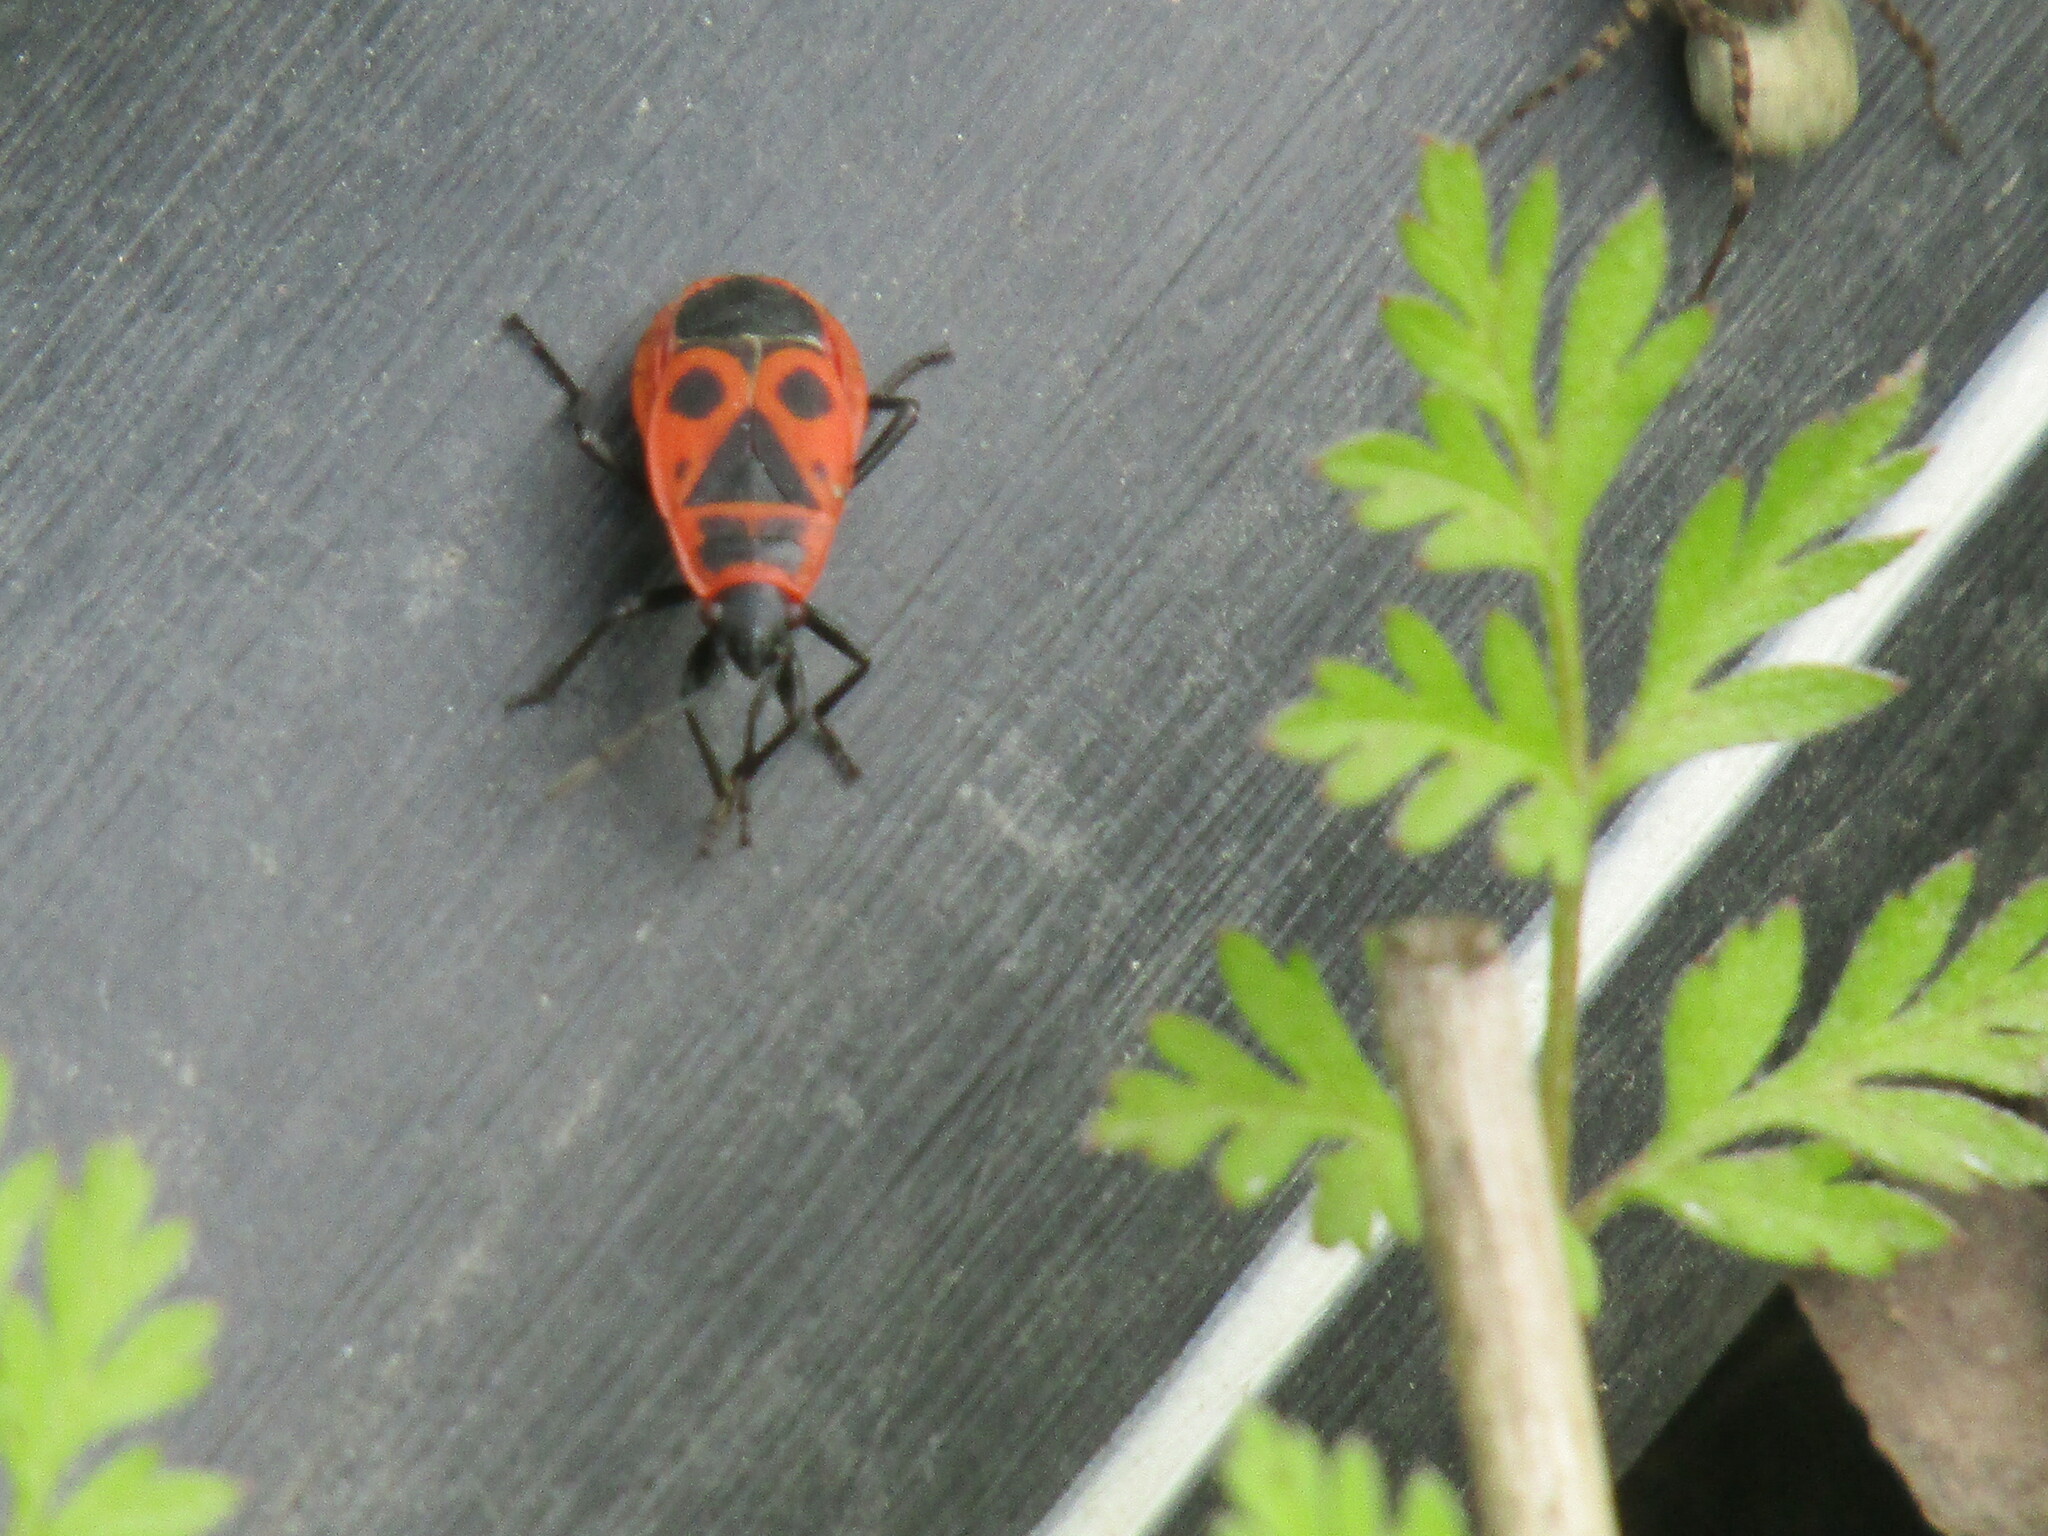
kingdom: Animalia
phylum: Arthropoda
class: Insecta
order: Hemiptera
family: Pyrrhocoridae
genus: Pyrrhocoris
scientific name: Pyrrhocoris apterus
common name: Firebug
